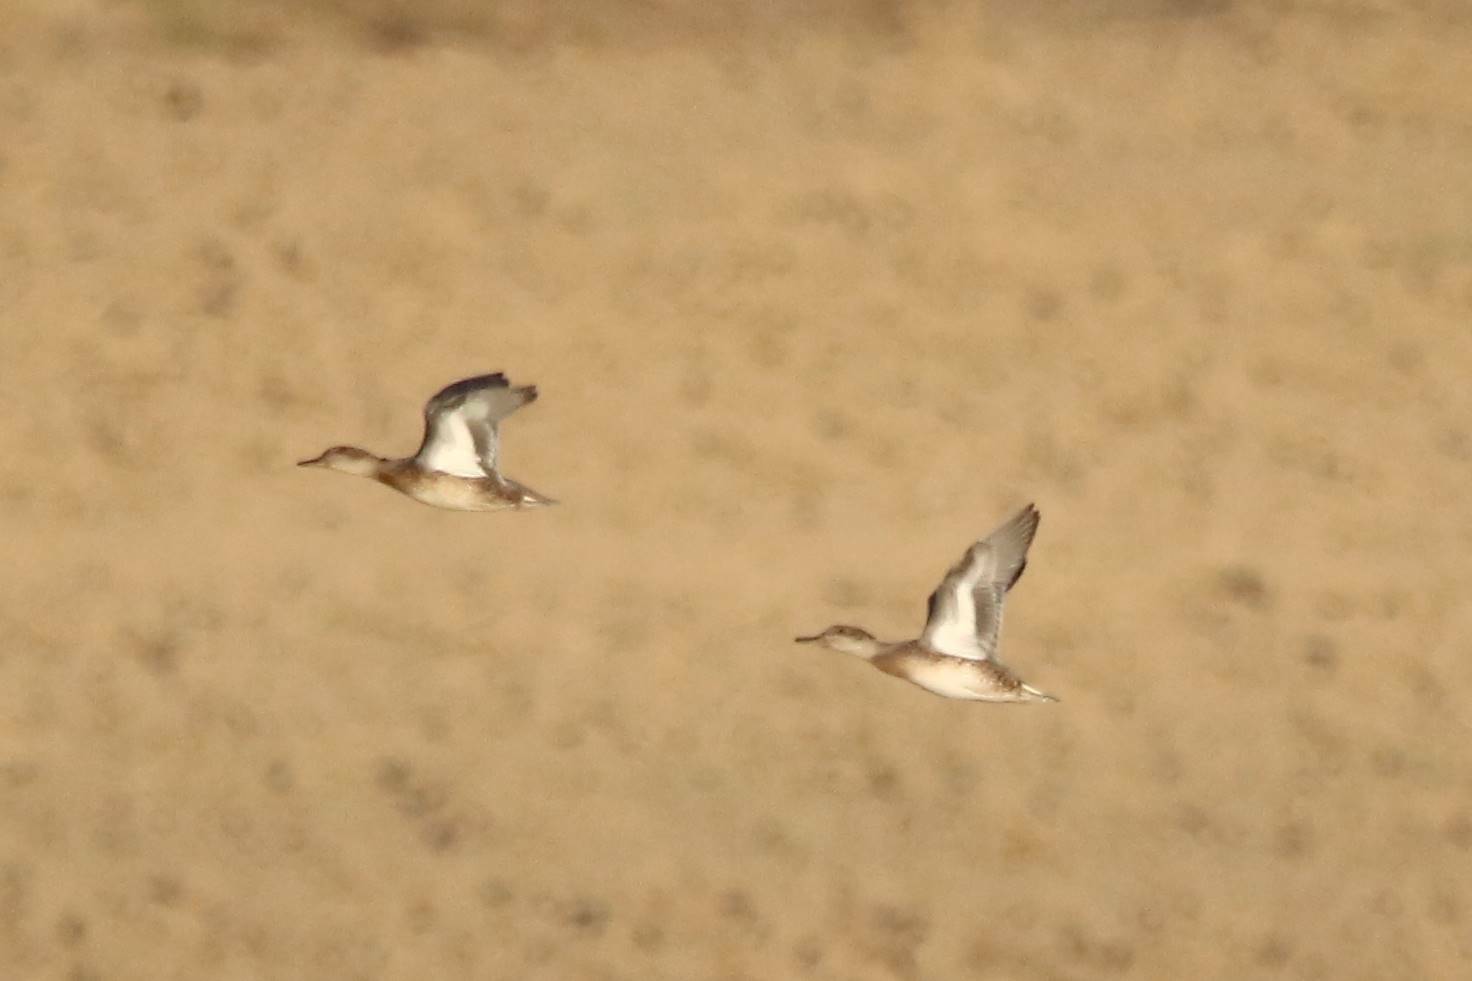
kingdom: Animalia
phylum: Chordata
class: Aves
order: Anseriformes
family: Anatidae
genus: Anas
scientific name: Anas crecca
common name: Eurasian teal
